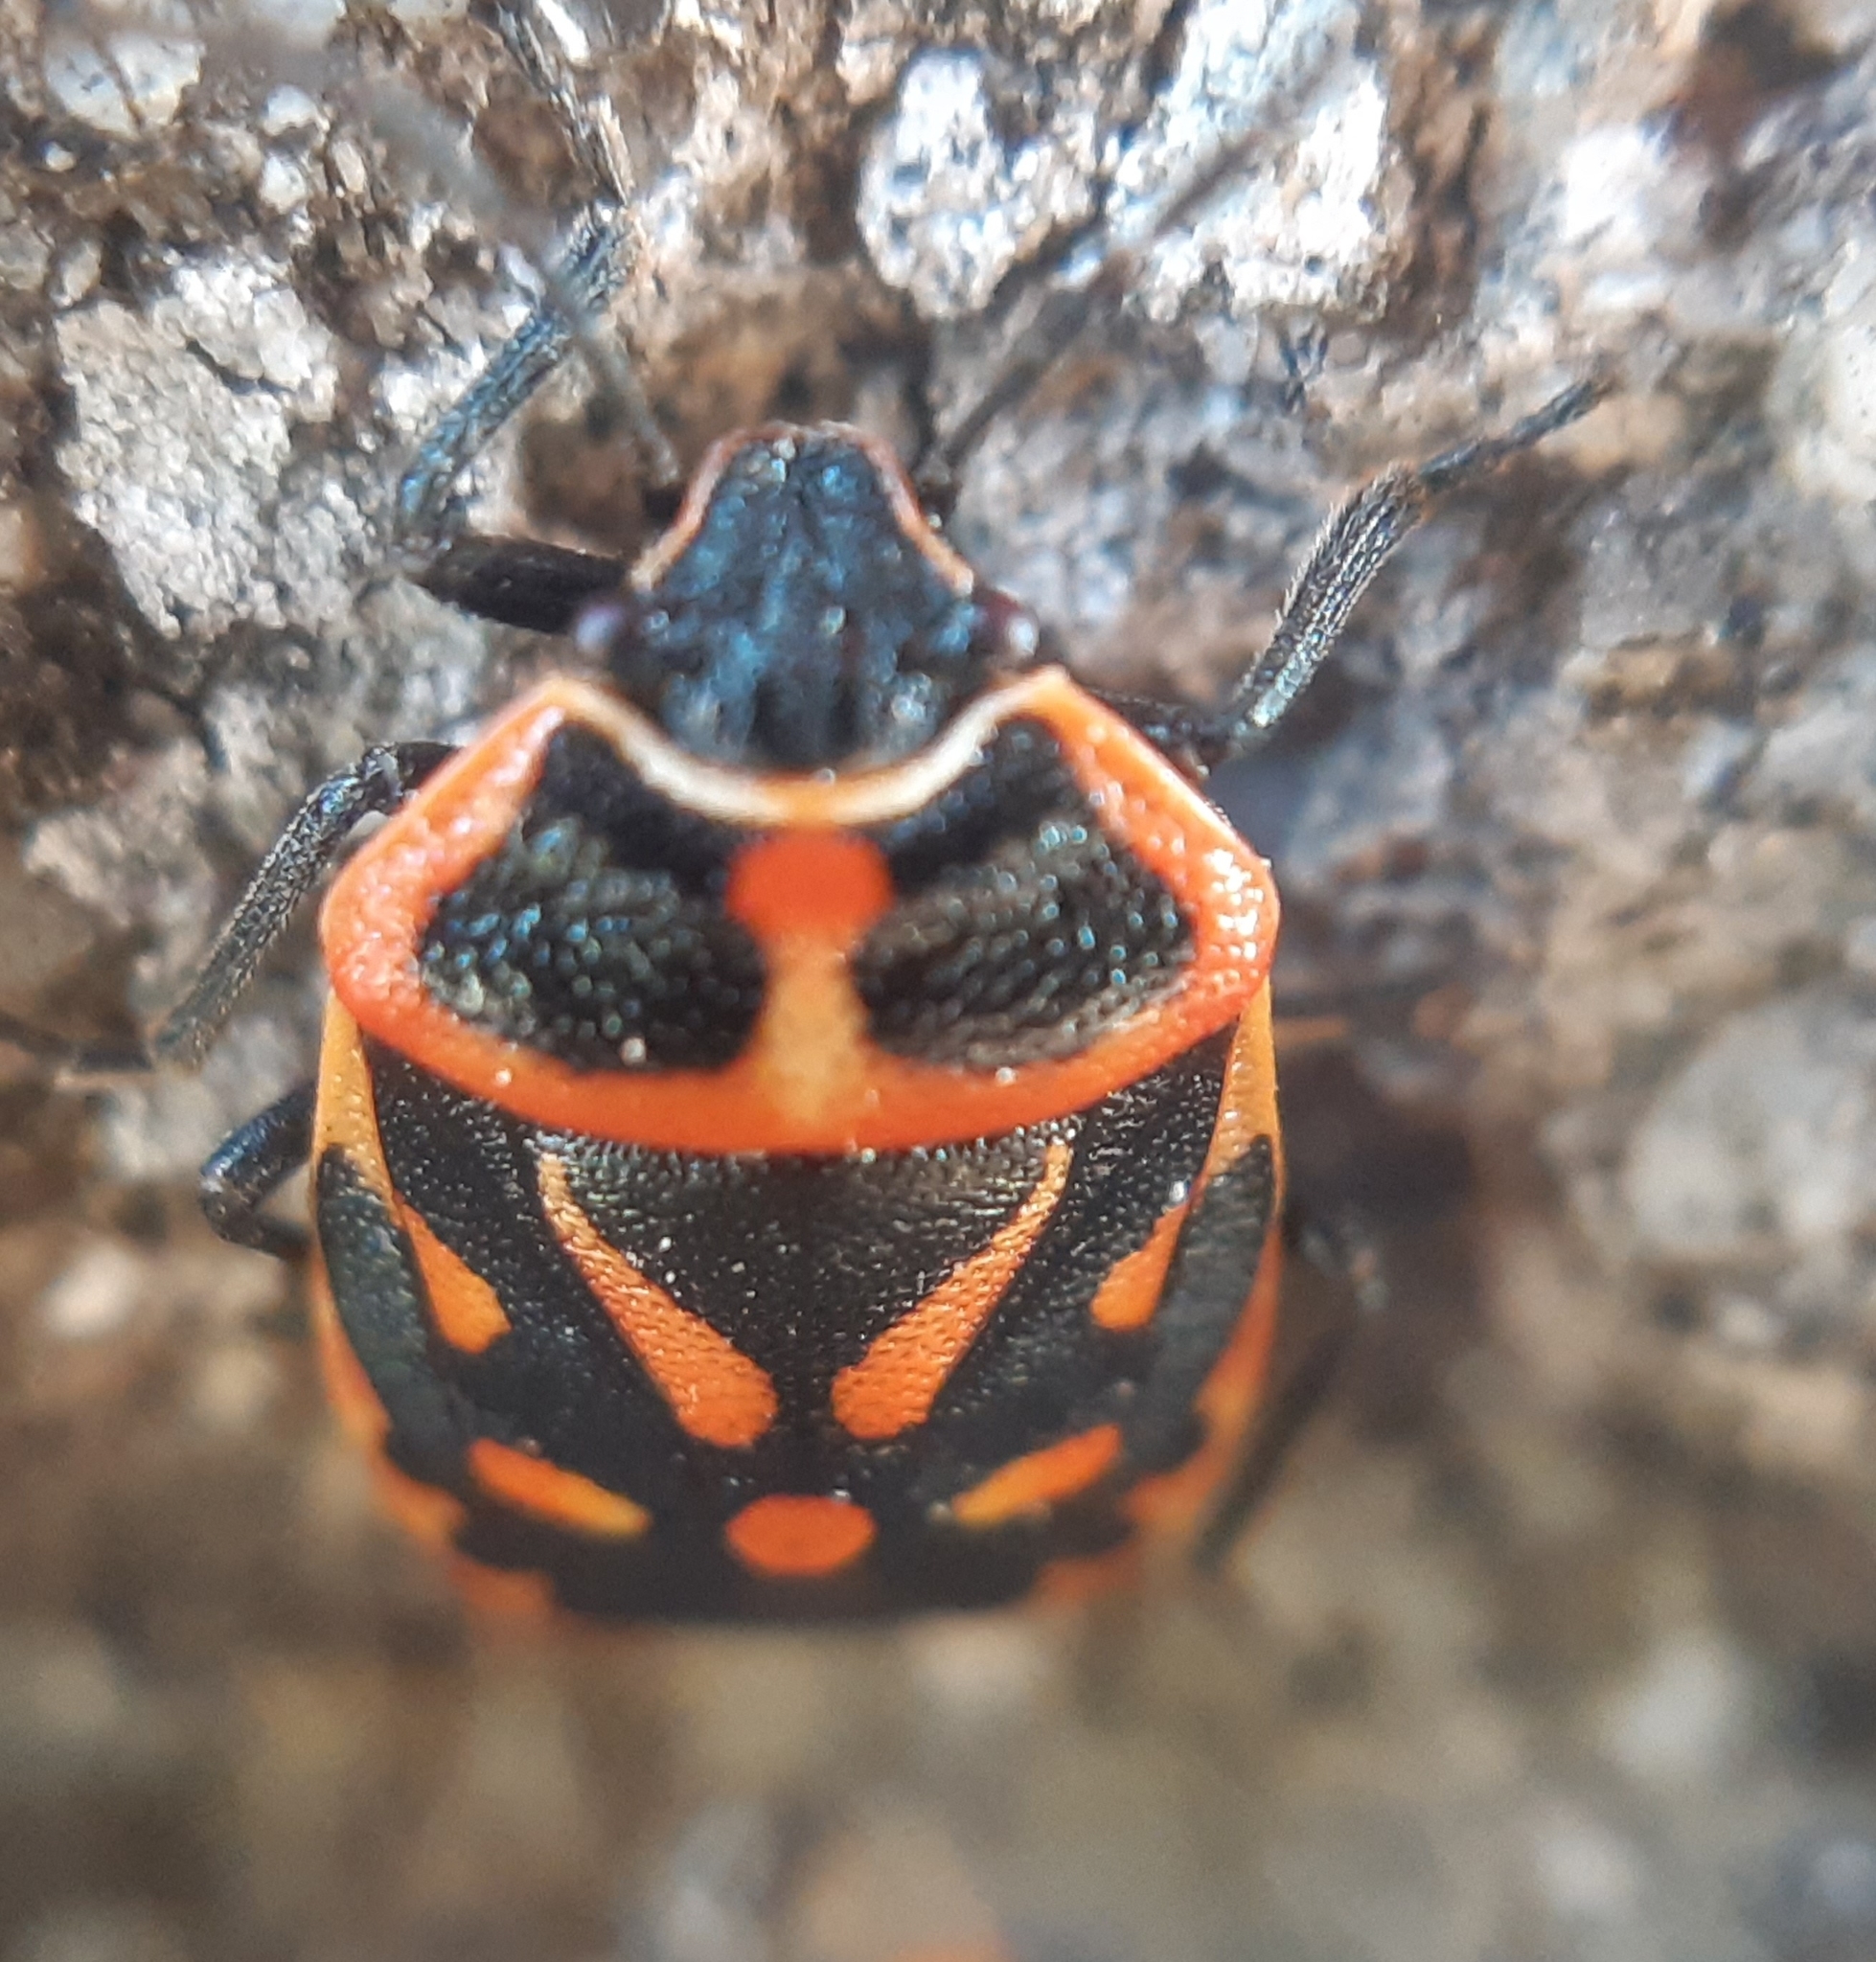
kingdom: Animalia
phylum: Arthropoda
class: Insecta
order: Hemiptera
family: Pentatomidae
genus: Eurydema
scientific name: Eurydema fieberi
